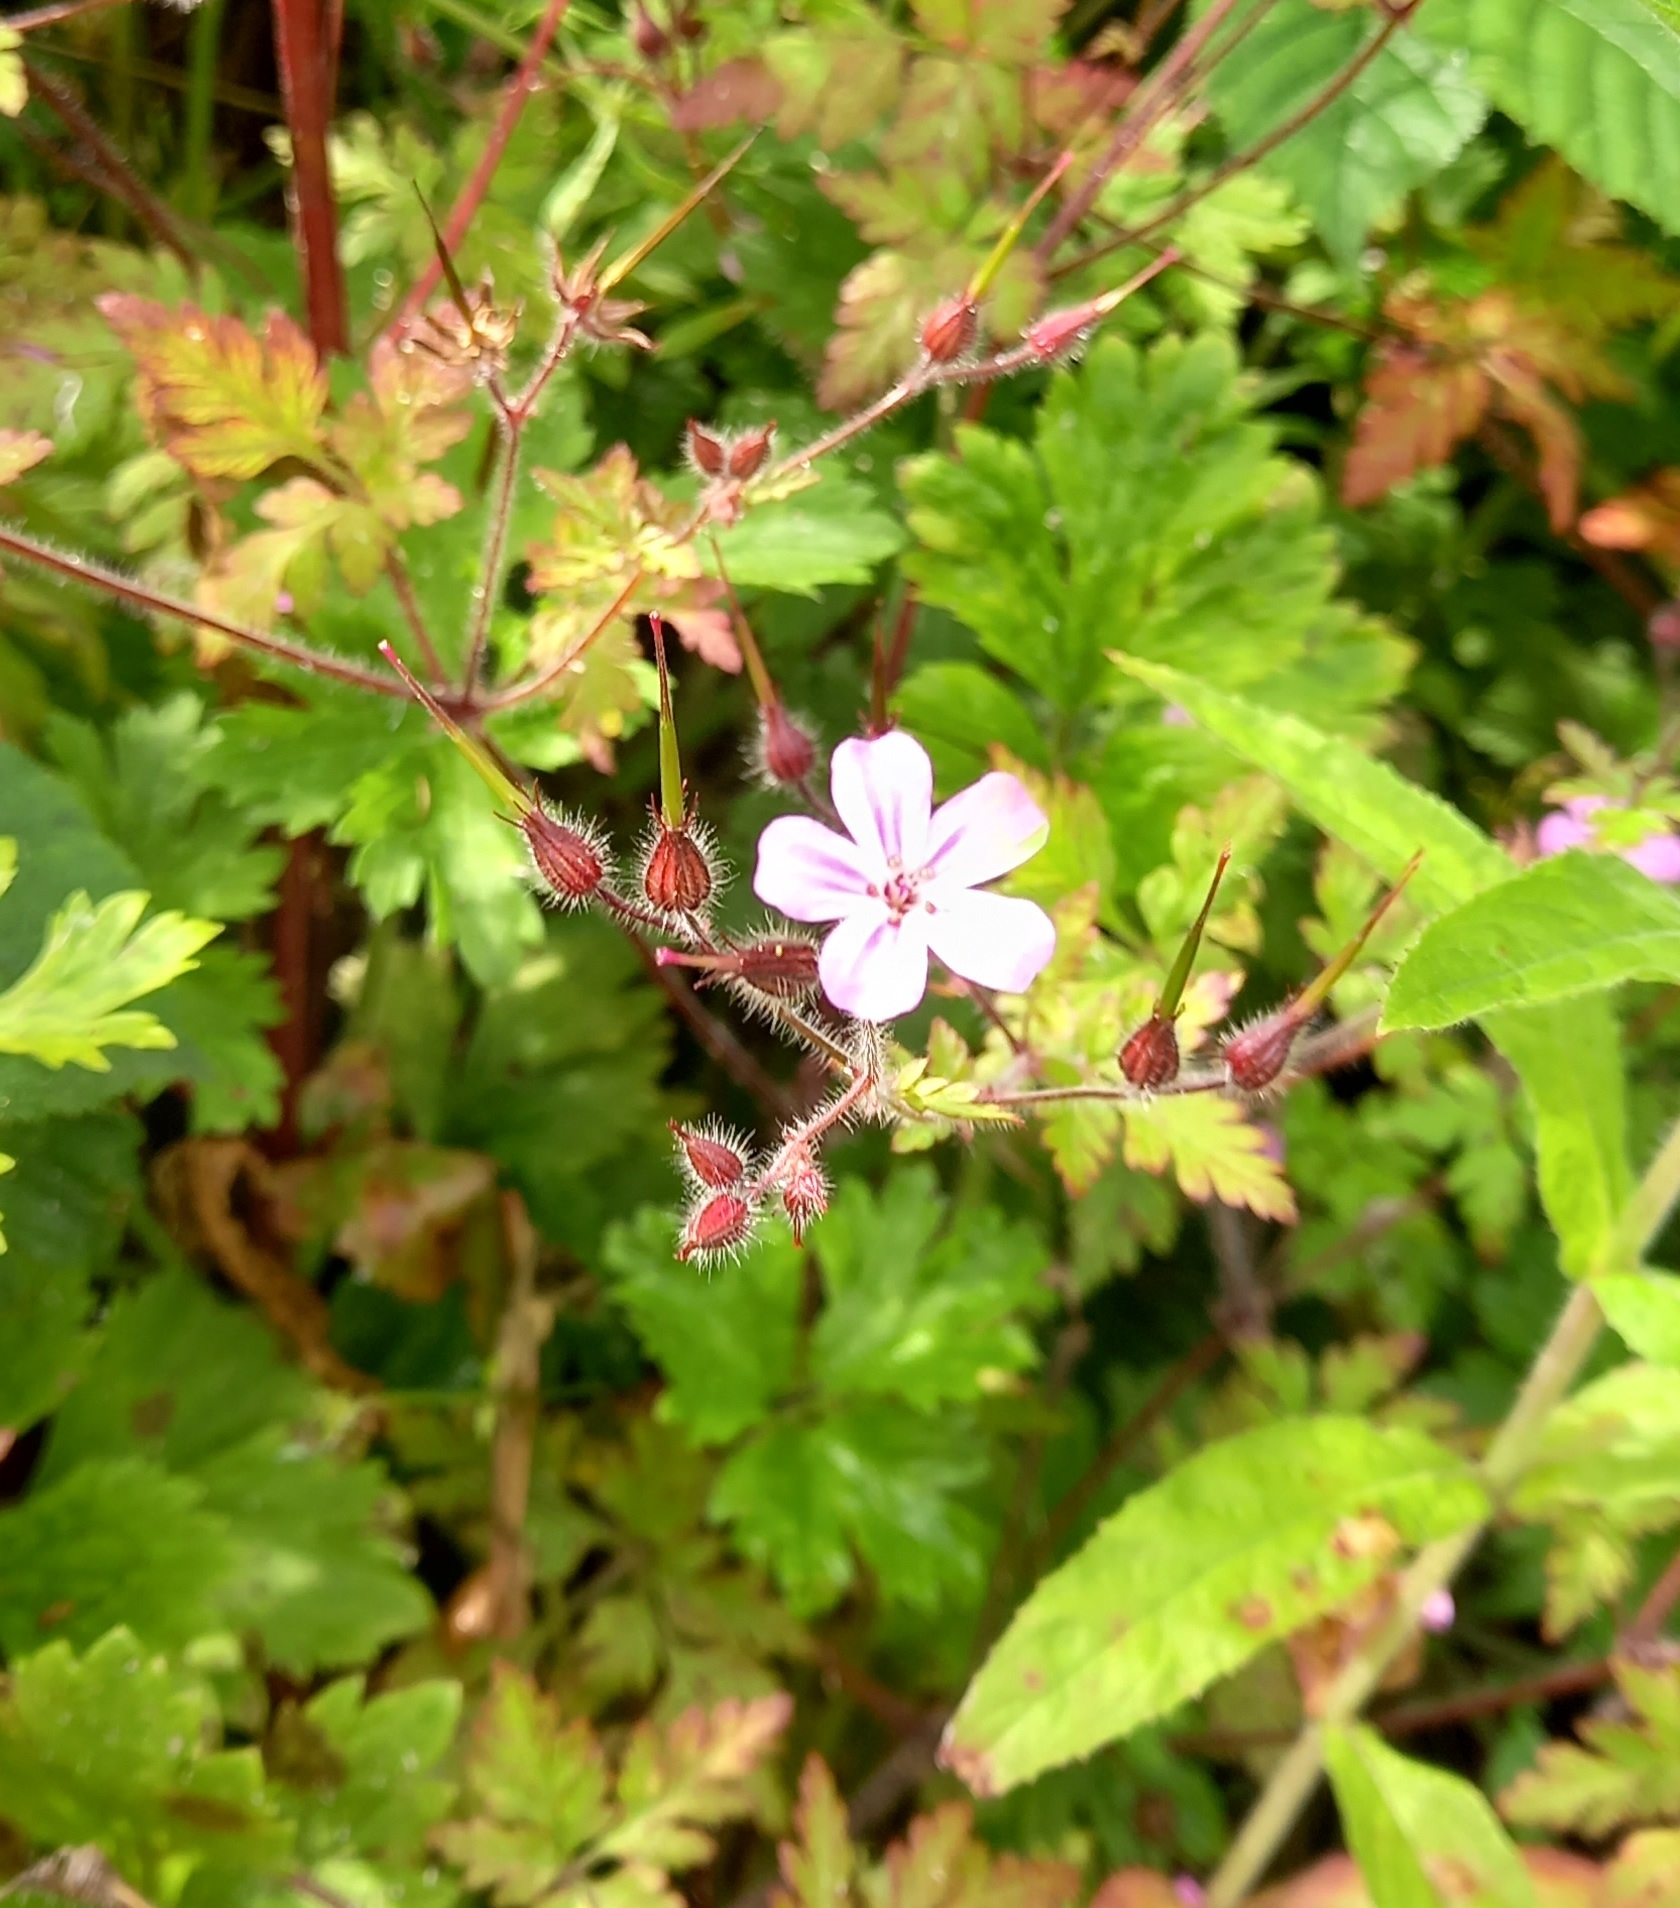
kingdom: Plantae
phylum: Tracheophyta
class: Magnoliopsida
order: Geraniales
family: Geraniaceae
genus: Geranium
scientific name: Geranium robertianum
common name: Herb-robert
